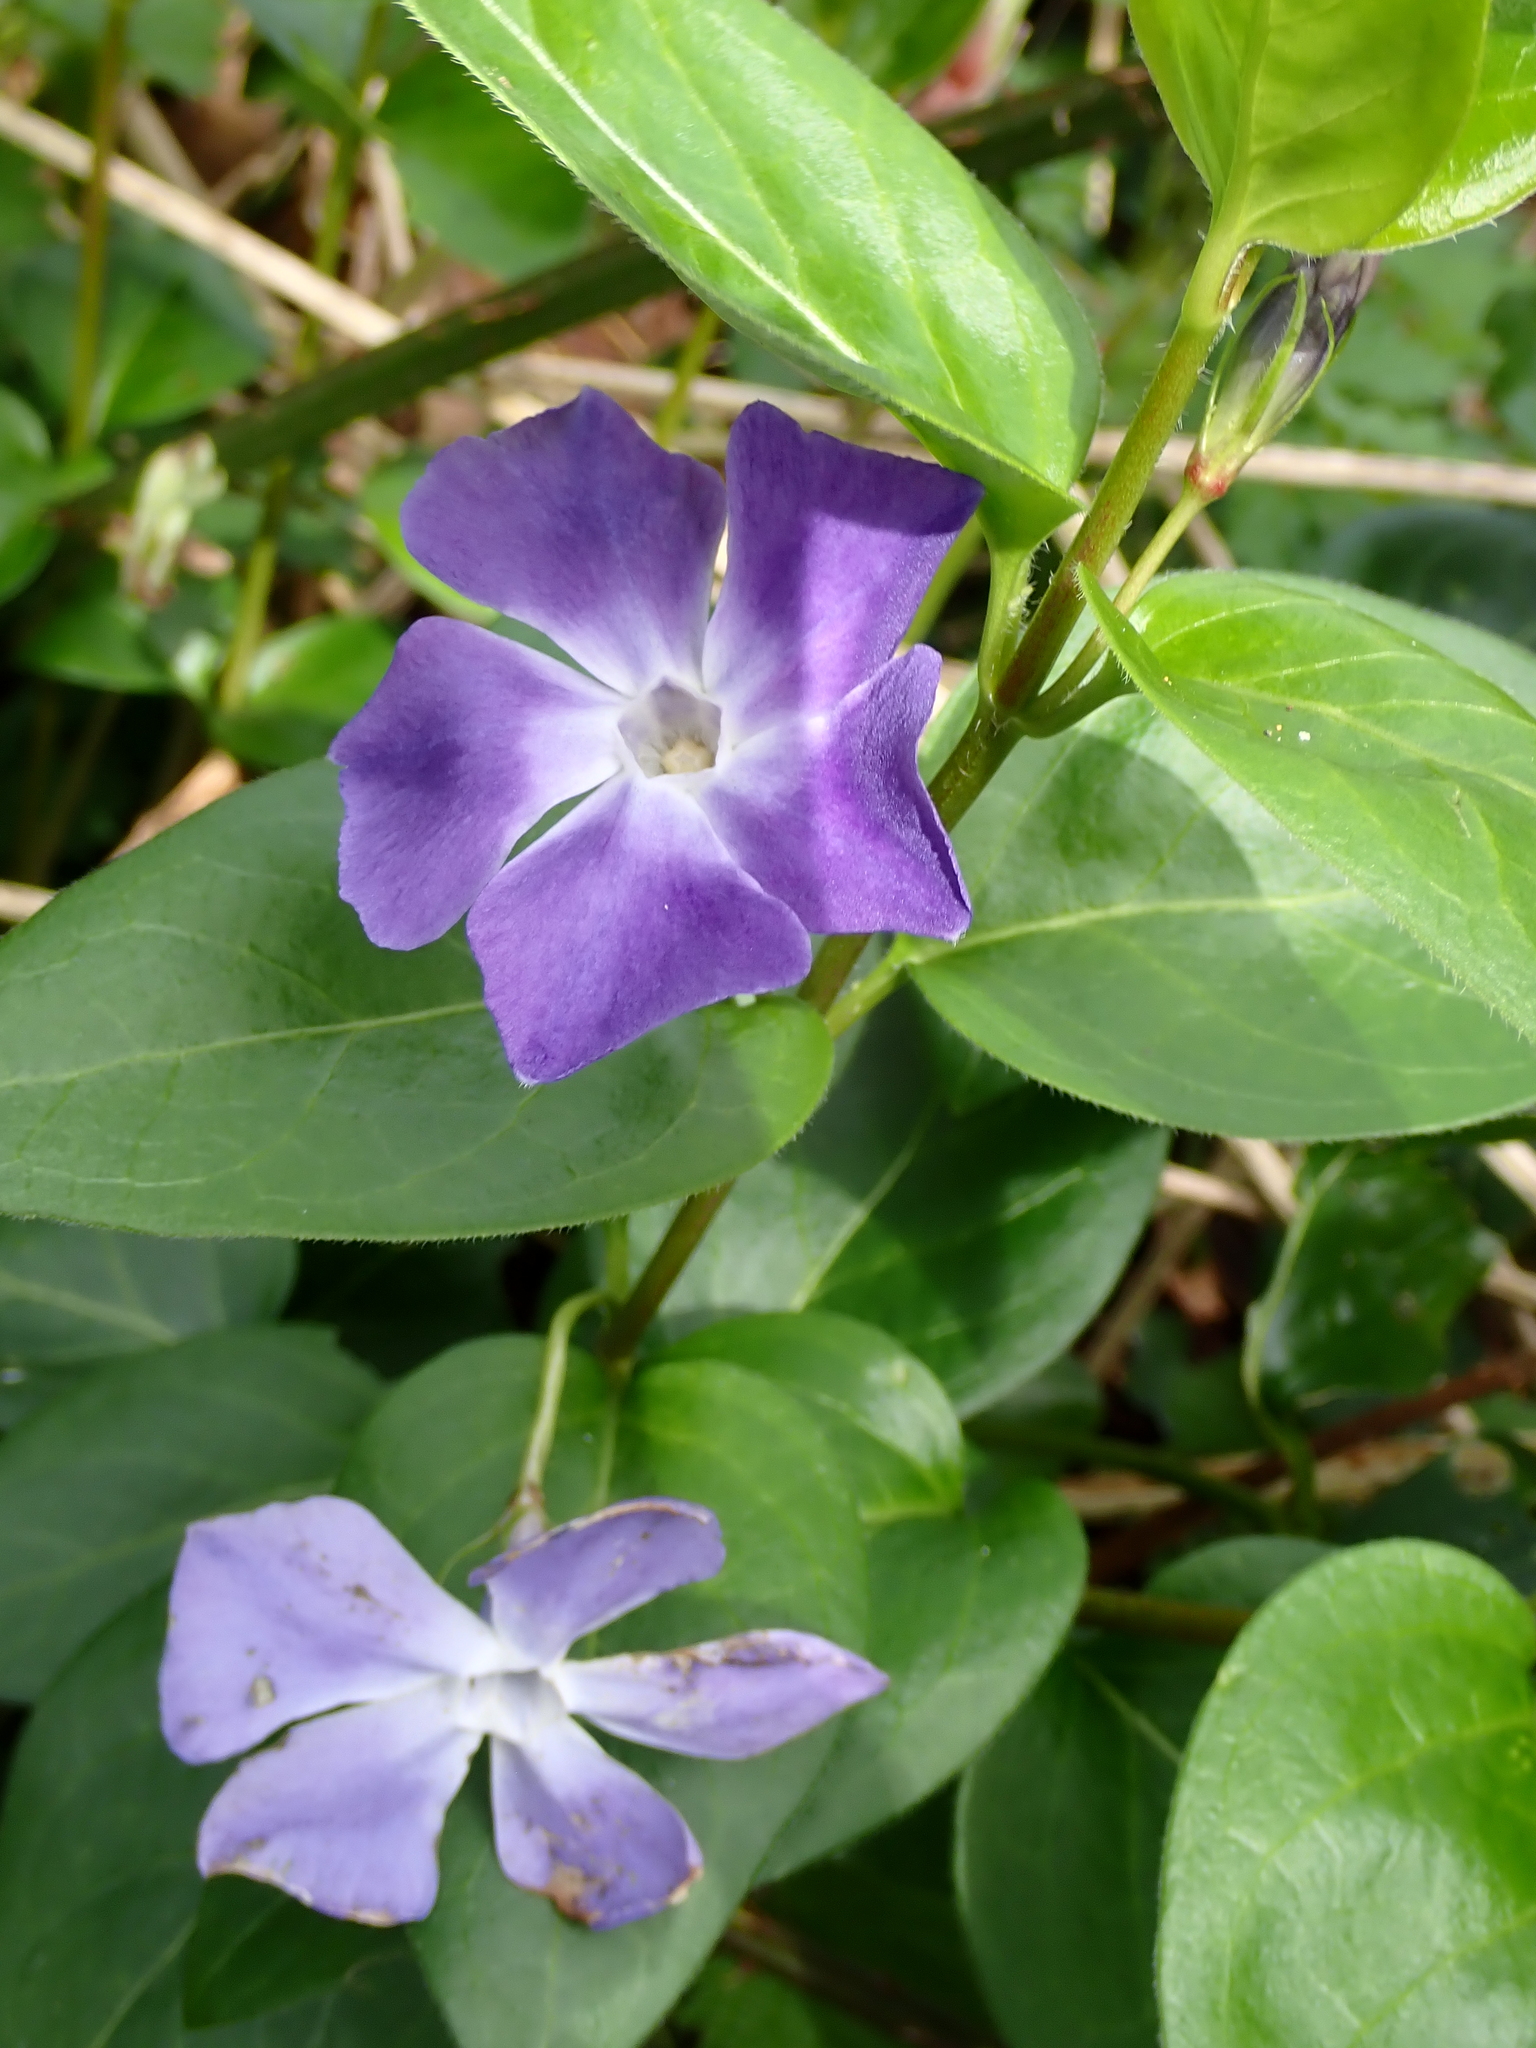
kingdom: Plantae
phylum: Tracheophyta
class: Magnoliopsida
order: Gentianales
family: Apocynaceae
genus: Vinca
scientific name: Vinca major
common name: Greater periwinkle
